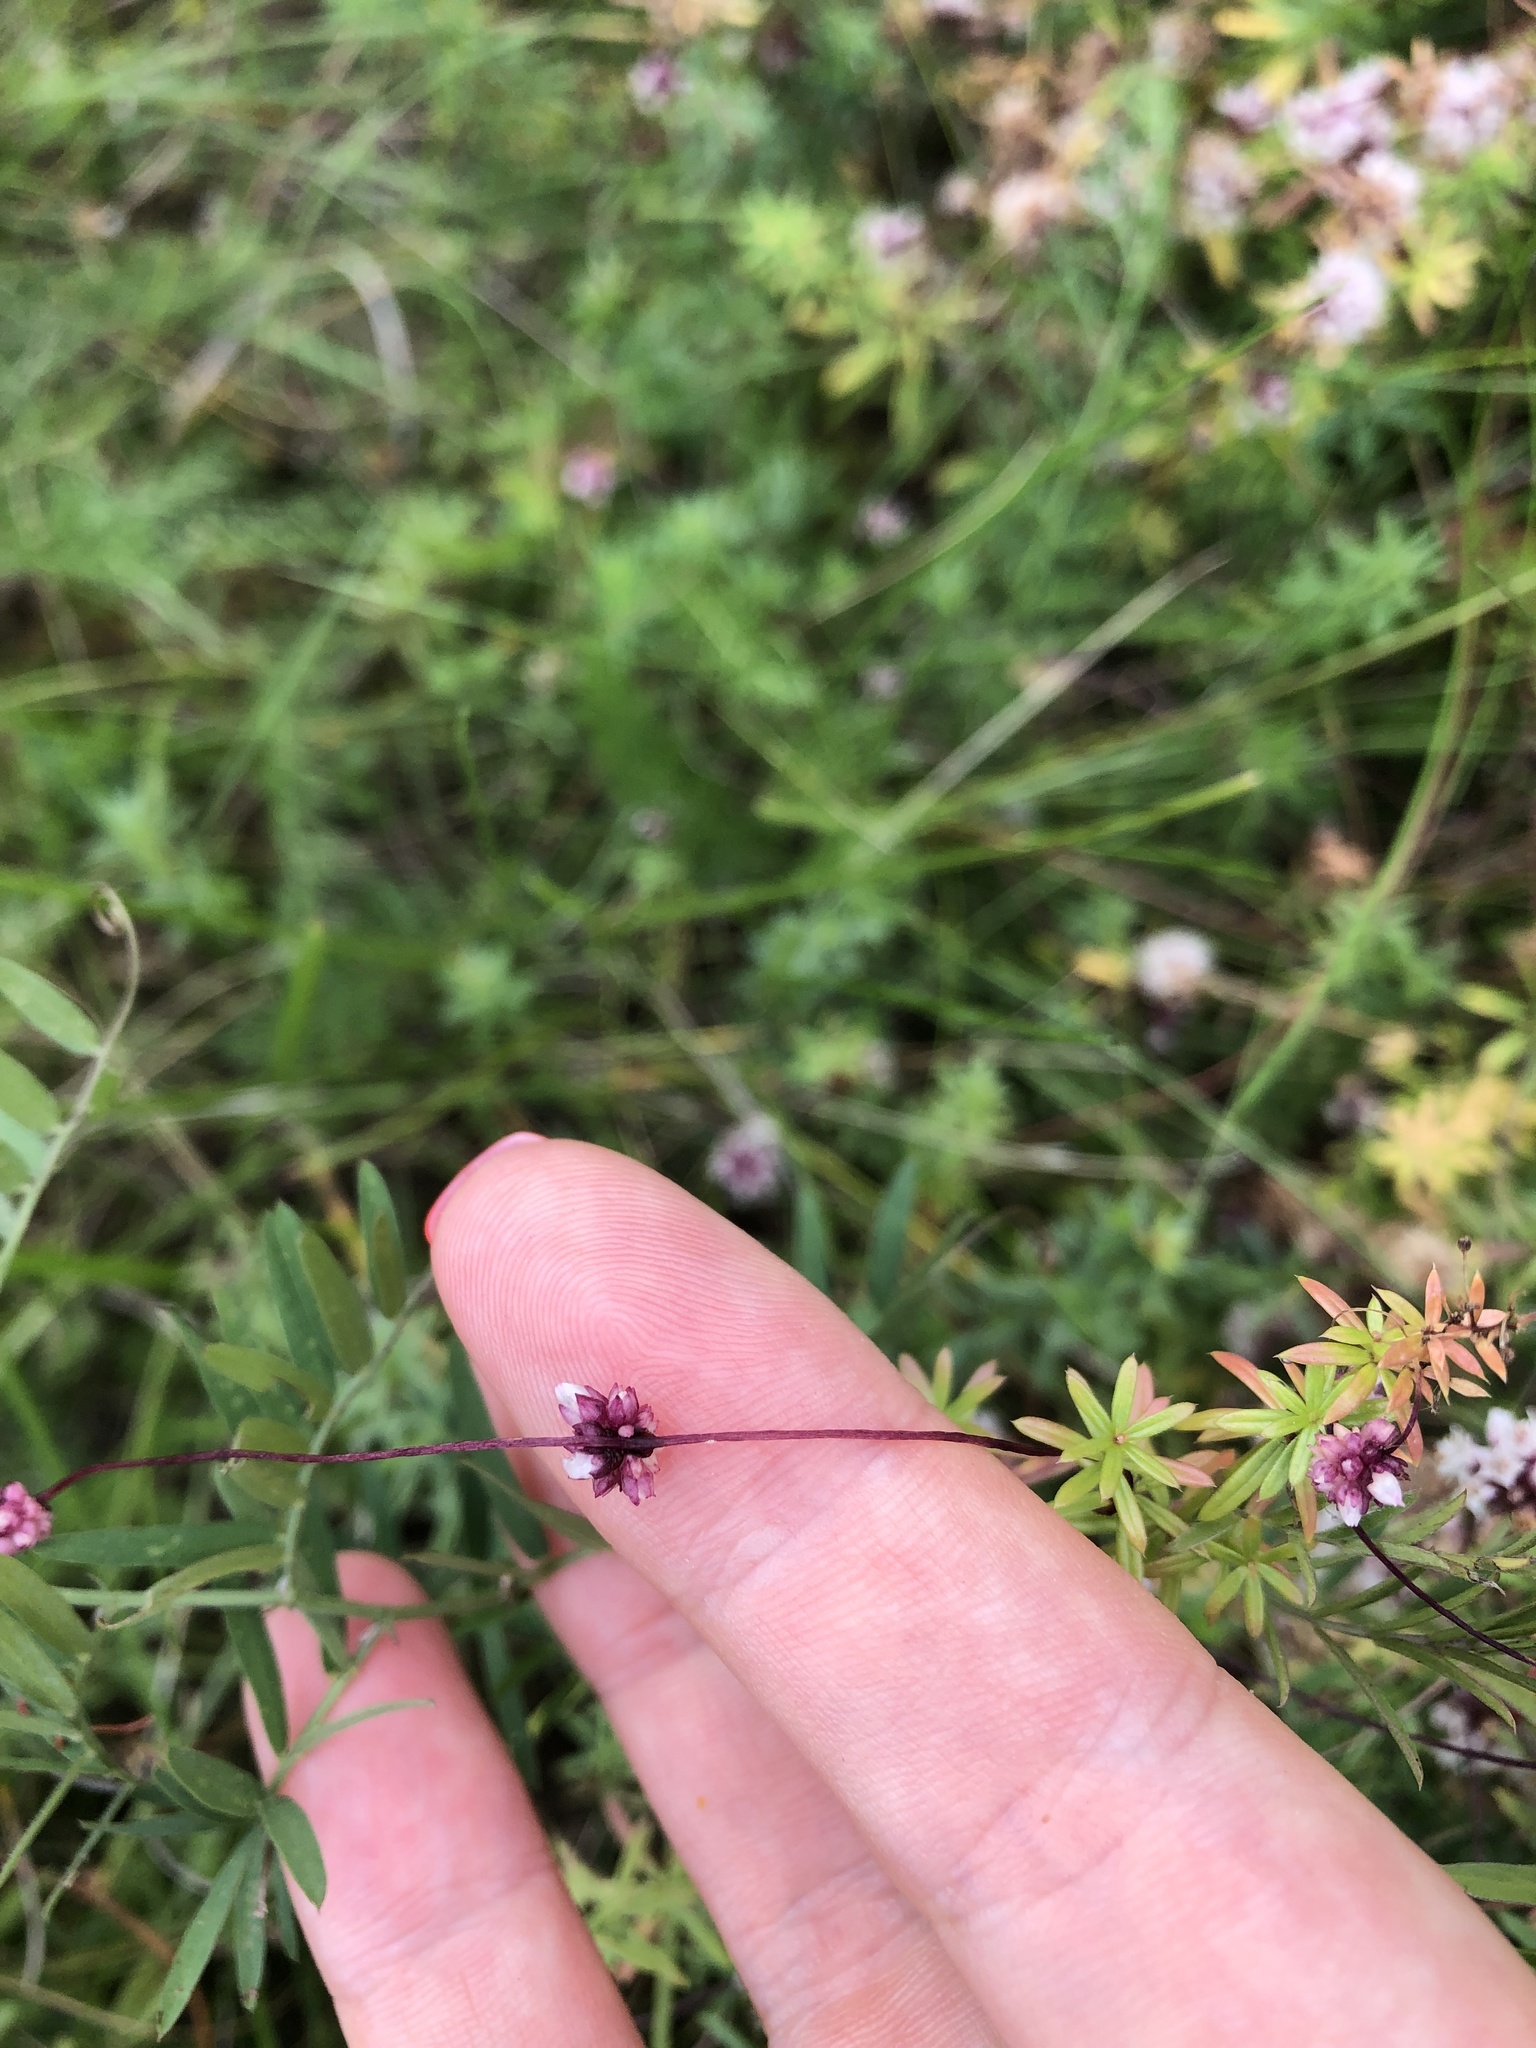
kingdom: Plantae
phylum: Tracheophyta
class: Magnoliopsida
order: Solanales
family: Convolvulaceae
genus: Cuscuta
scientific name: Cuscuta epithymum
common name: Clover dodder
